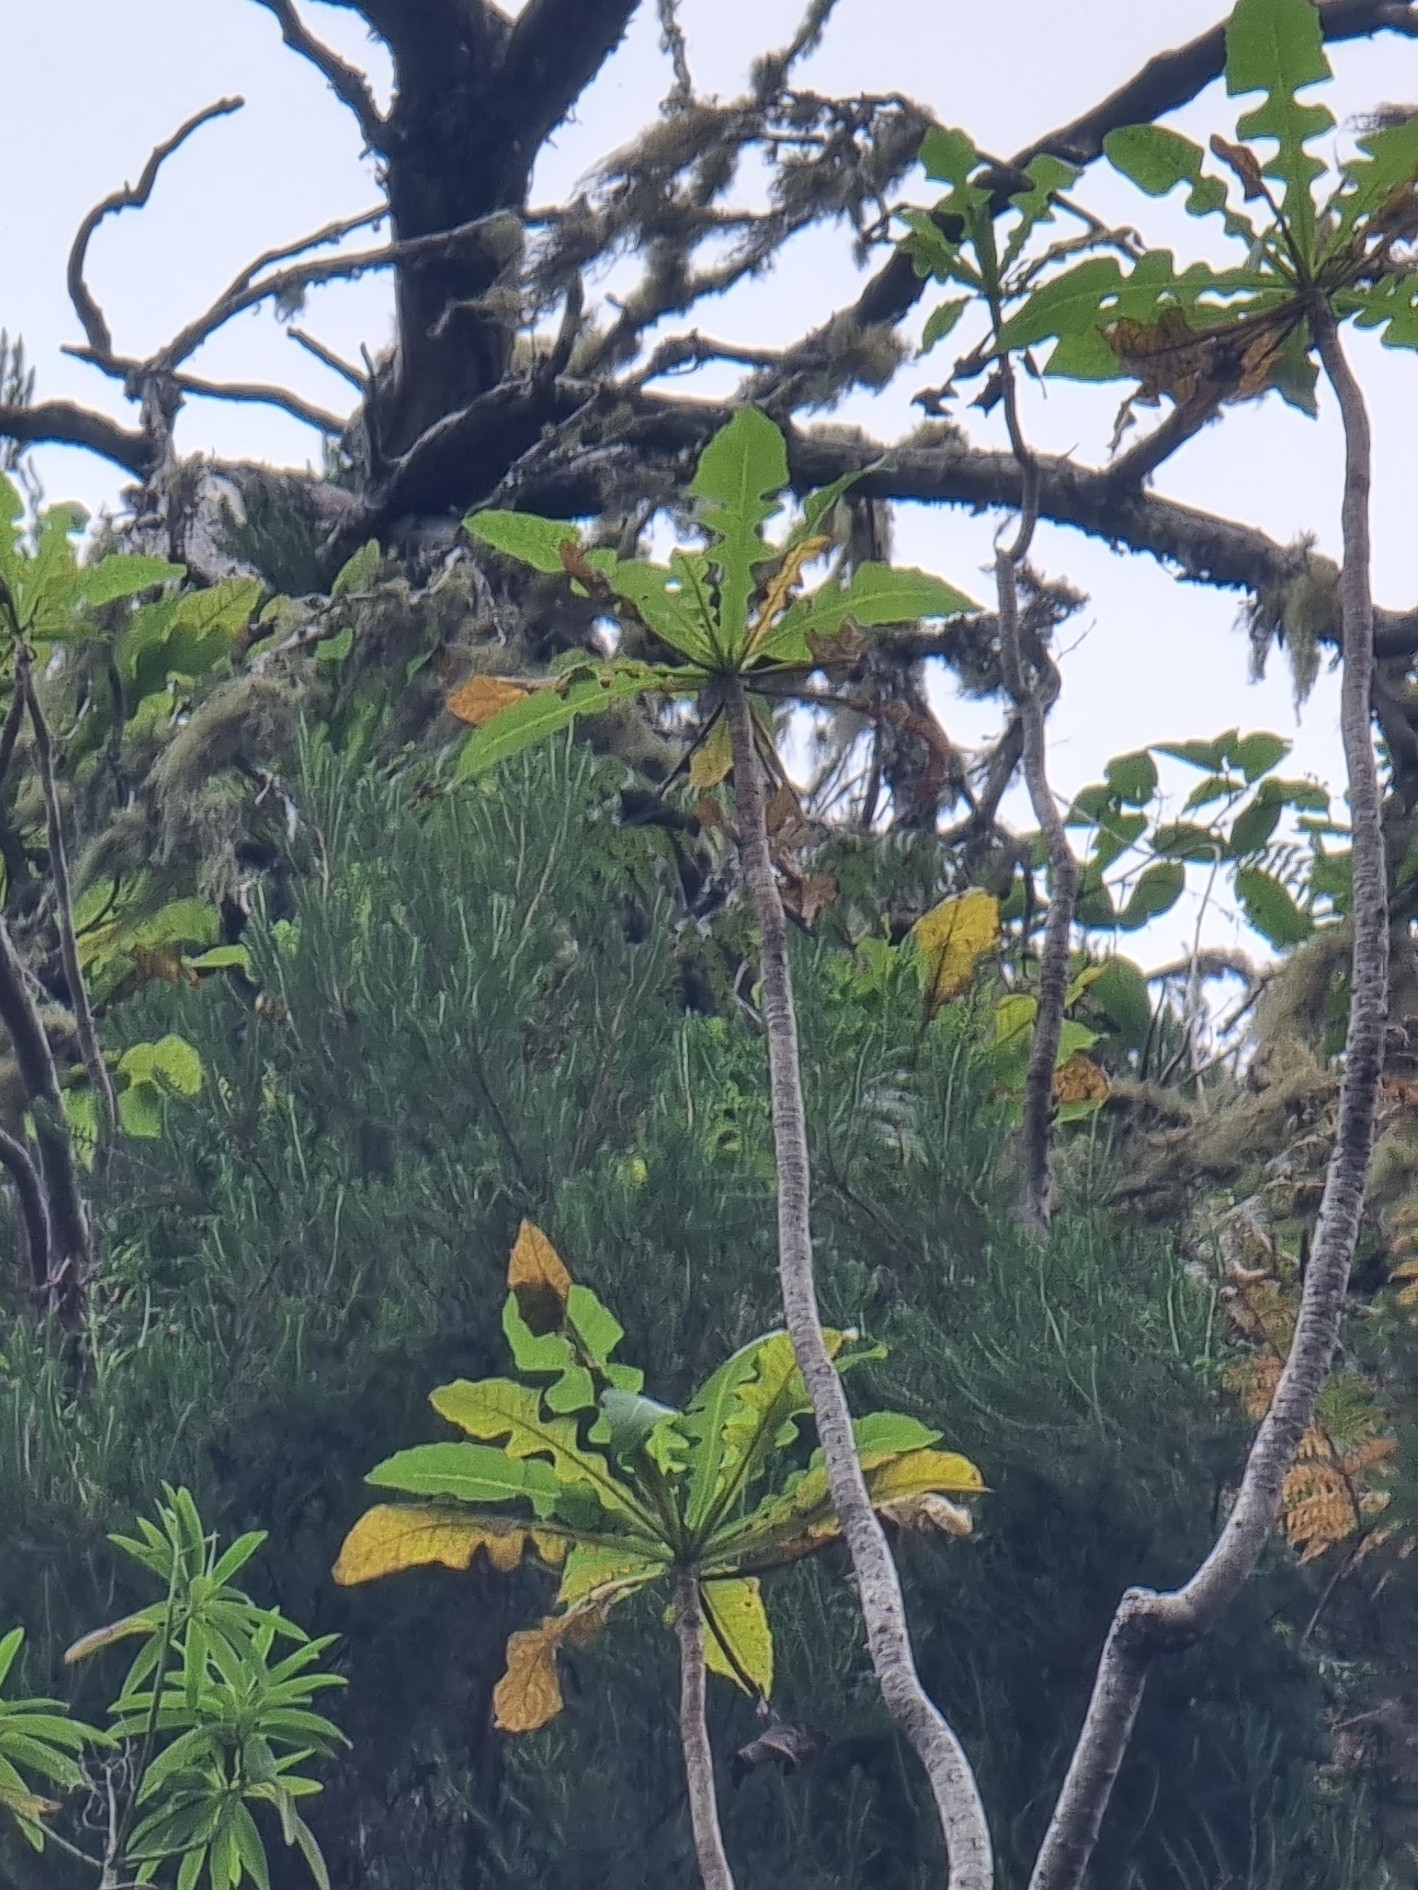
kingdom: Plantae
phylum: Tracheophyta
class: Magnoliopsida
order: Asterales
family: Asteraceae
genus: Sonchus
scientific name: Sonchus fruticosus
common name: Shrubby sow-thistle
